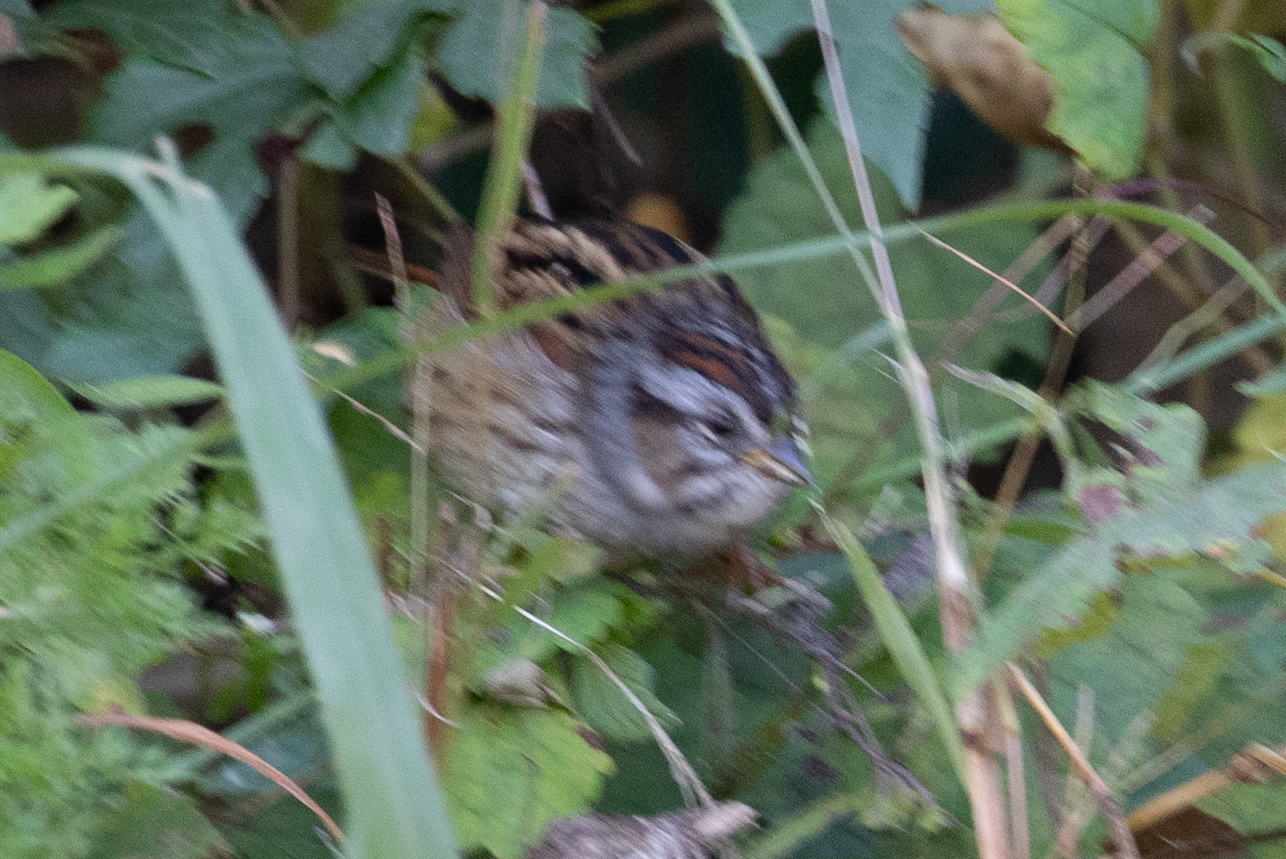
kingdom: Animalia
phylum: Chordata
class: Aves
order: Passeriformes
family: Passerellidae
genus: Melospiza
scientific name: Melospiza georgiana
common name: Swamp sparrow
